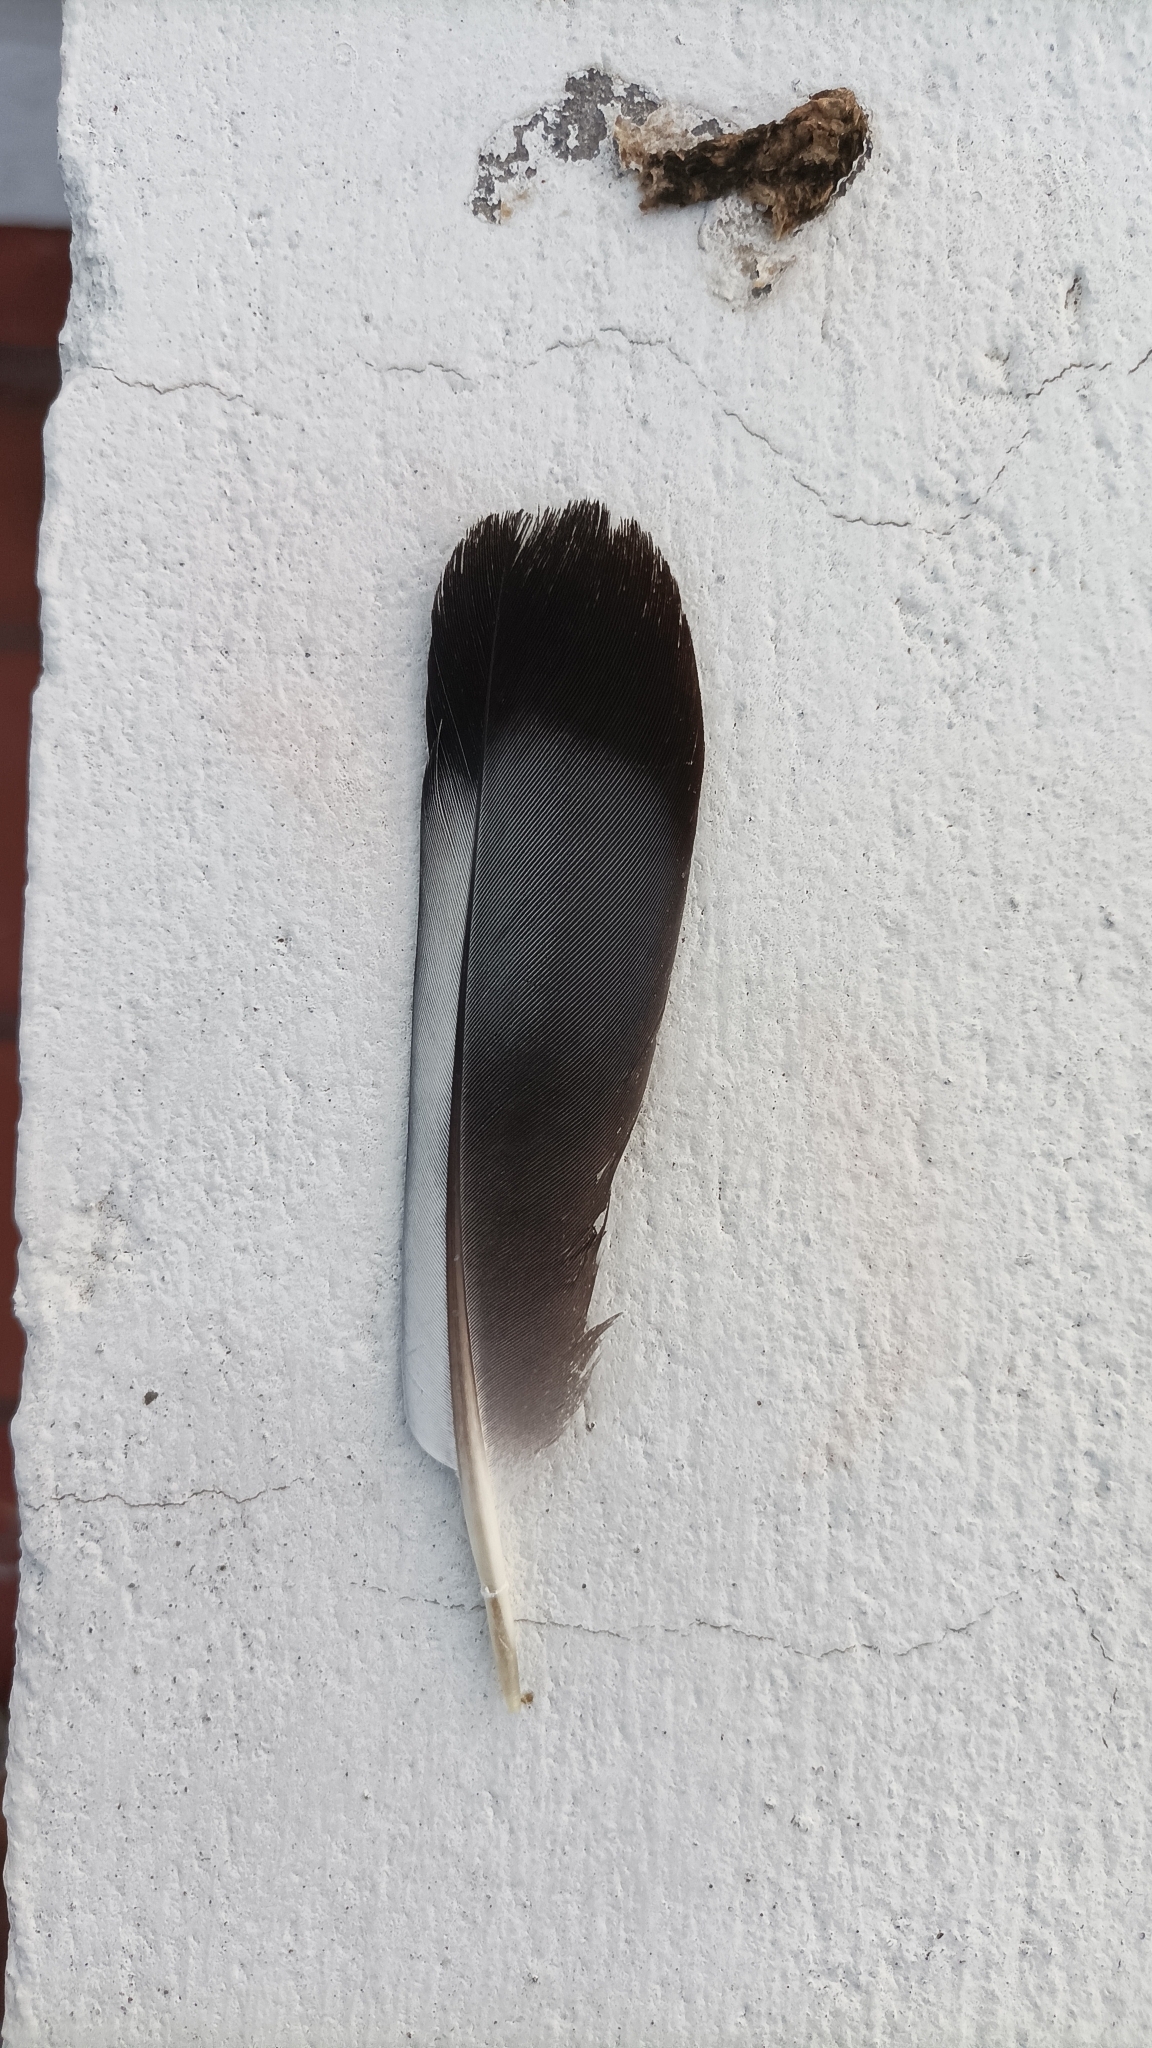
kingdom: Animalia
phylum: Chordata
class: Aves
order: Columbiformes
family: Columbidae
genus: Columba
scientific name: Columba livia
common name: Rock pigeon
